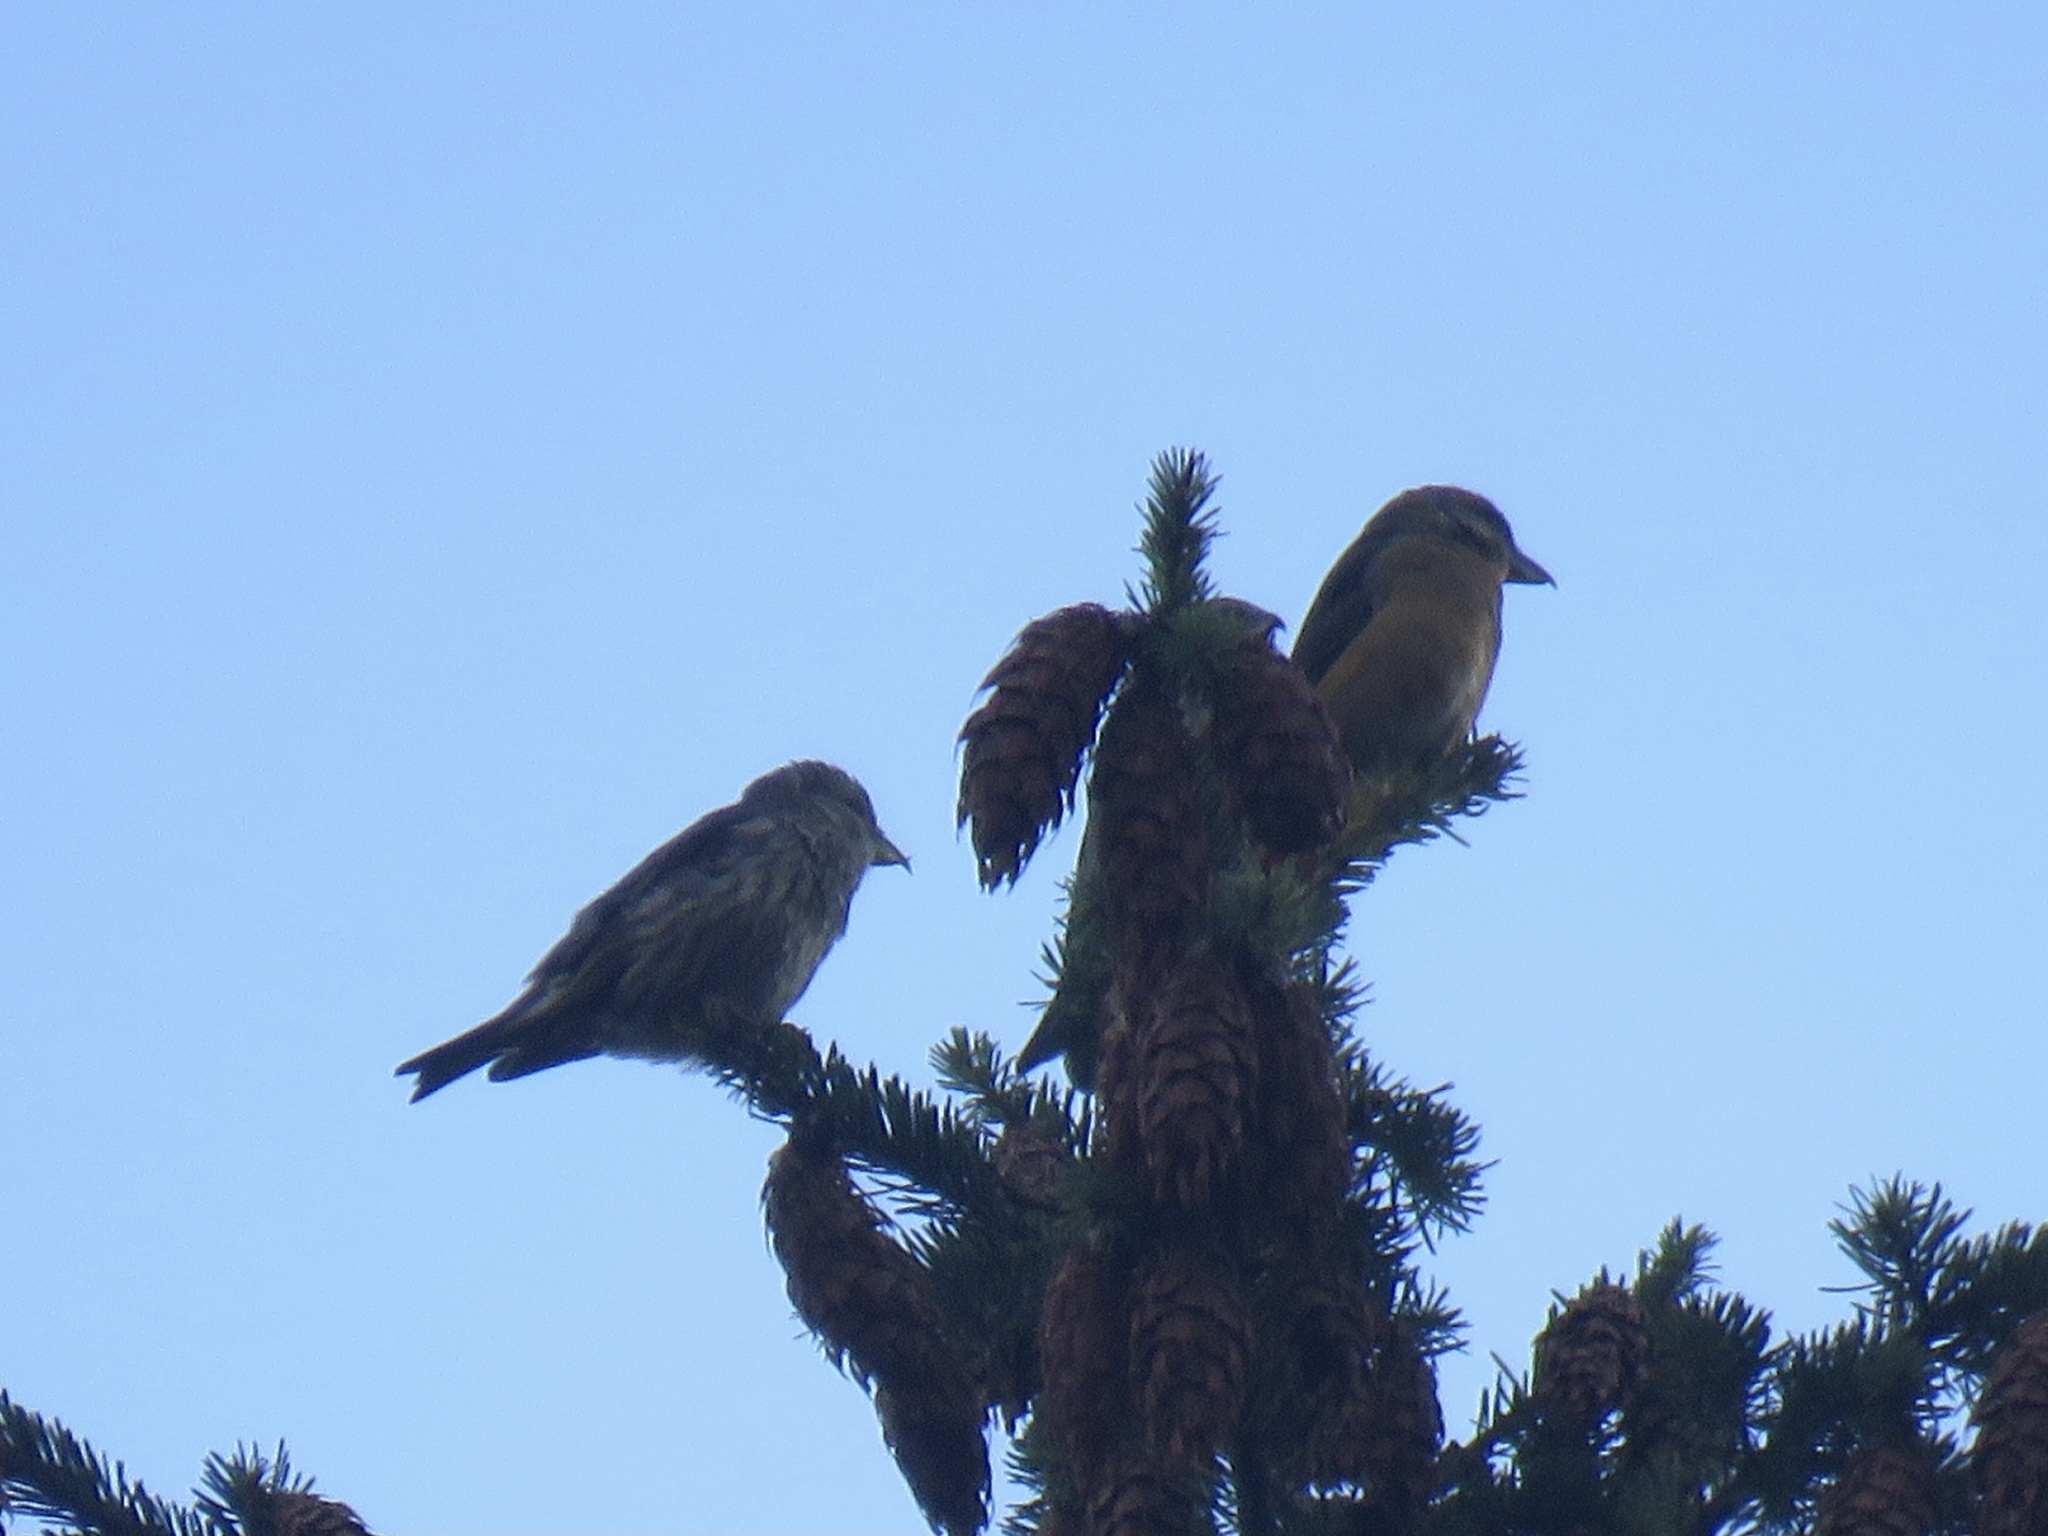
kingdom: Animalia
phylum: Chordata
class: Aves
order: Passeriformes
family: Fringillidae
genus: Loxia
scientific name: Loxia curvirostra
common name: Red crossbill
